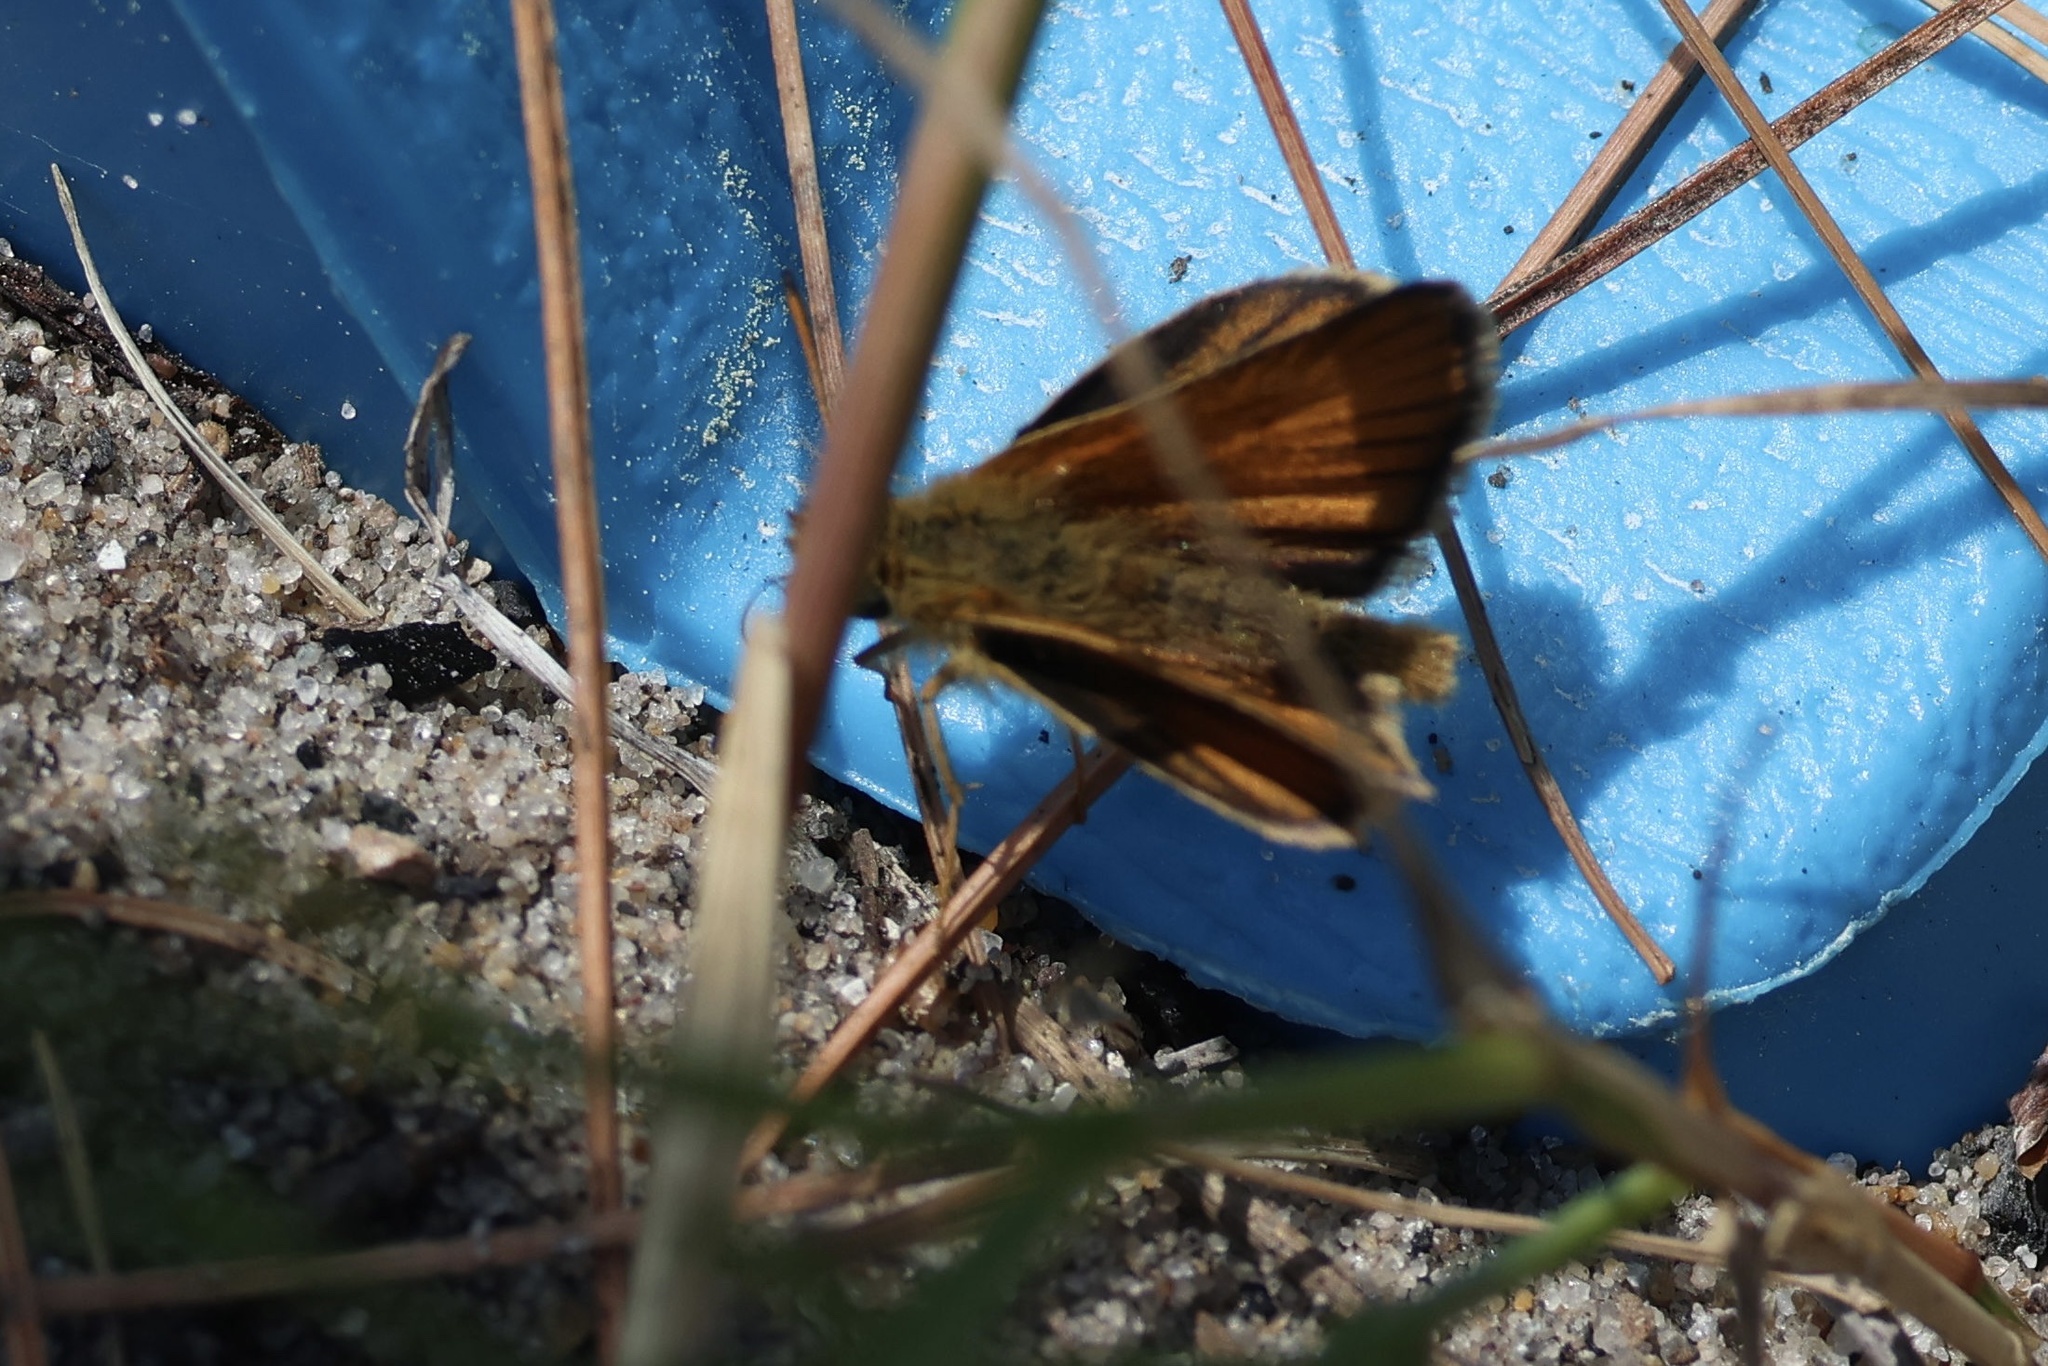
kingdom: Animalia
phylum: Arthropoda
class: Insecta
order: Lepidoptera
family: Hesperiidae
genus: Thymelicus
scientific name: Thymelicus lineola
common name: Essex skipper
